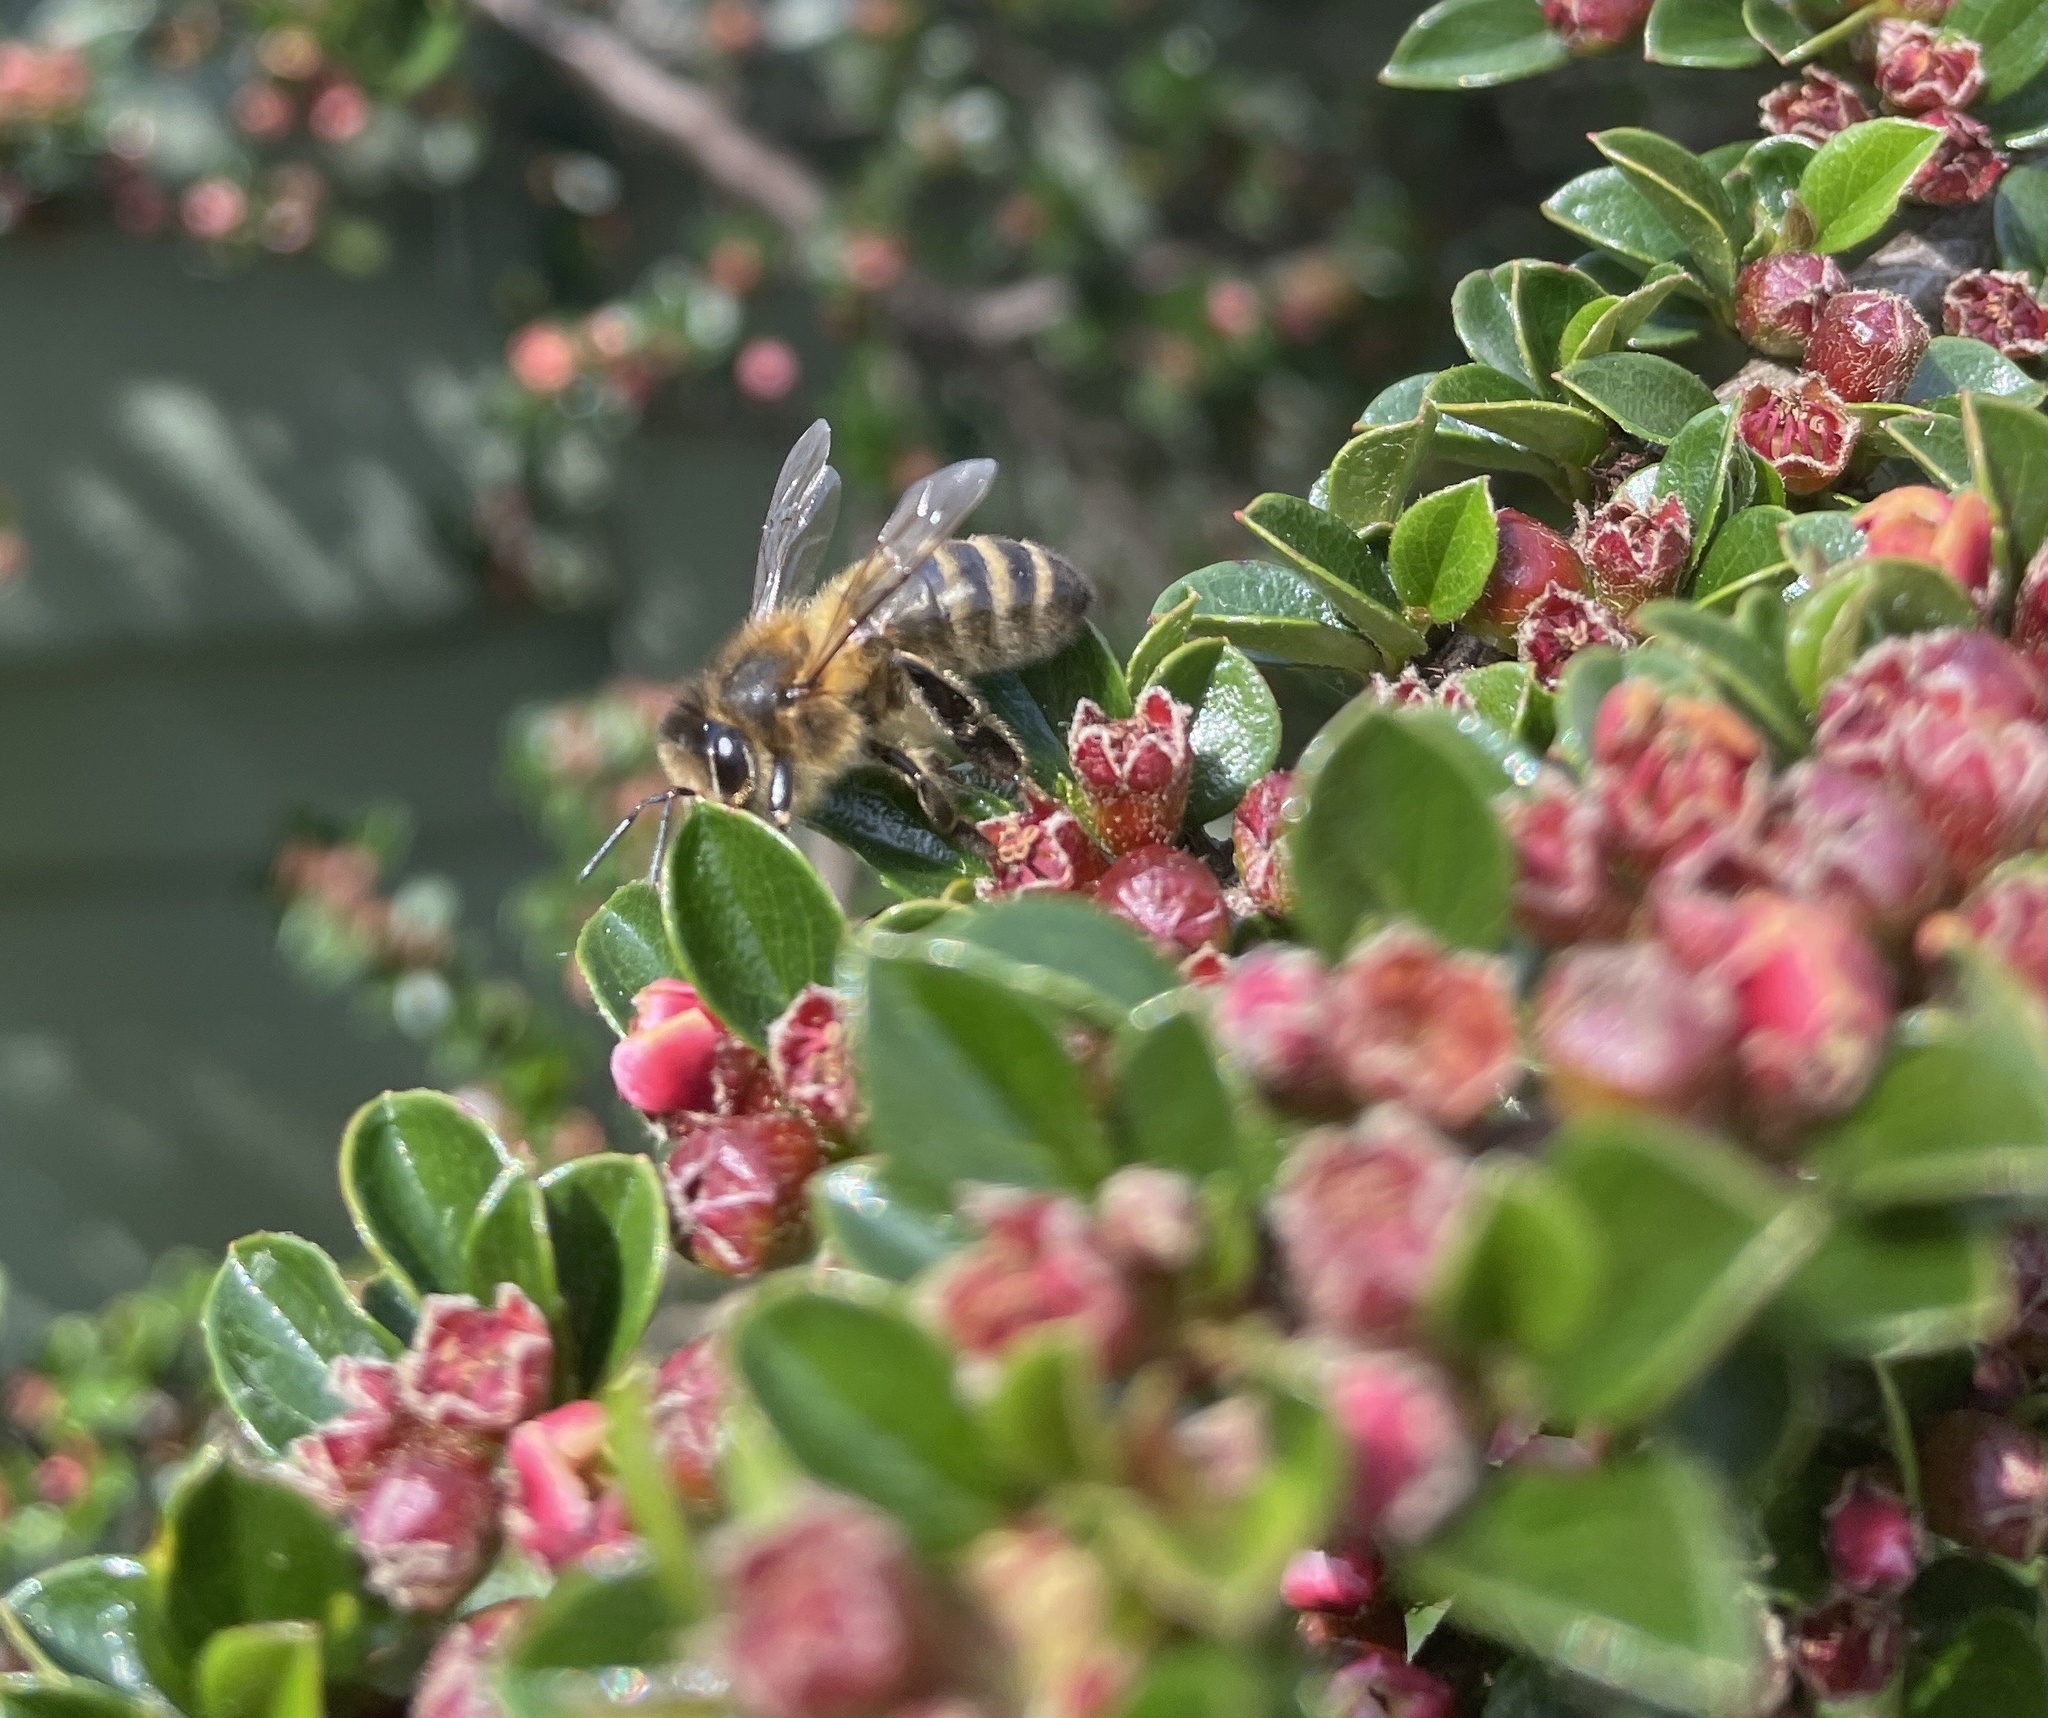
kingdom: Animalia
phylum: Arthropoda
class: Insecta
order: Hymenoptera
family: Apidae
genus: Apis
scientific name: Apis mellifera
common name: Honey bee
